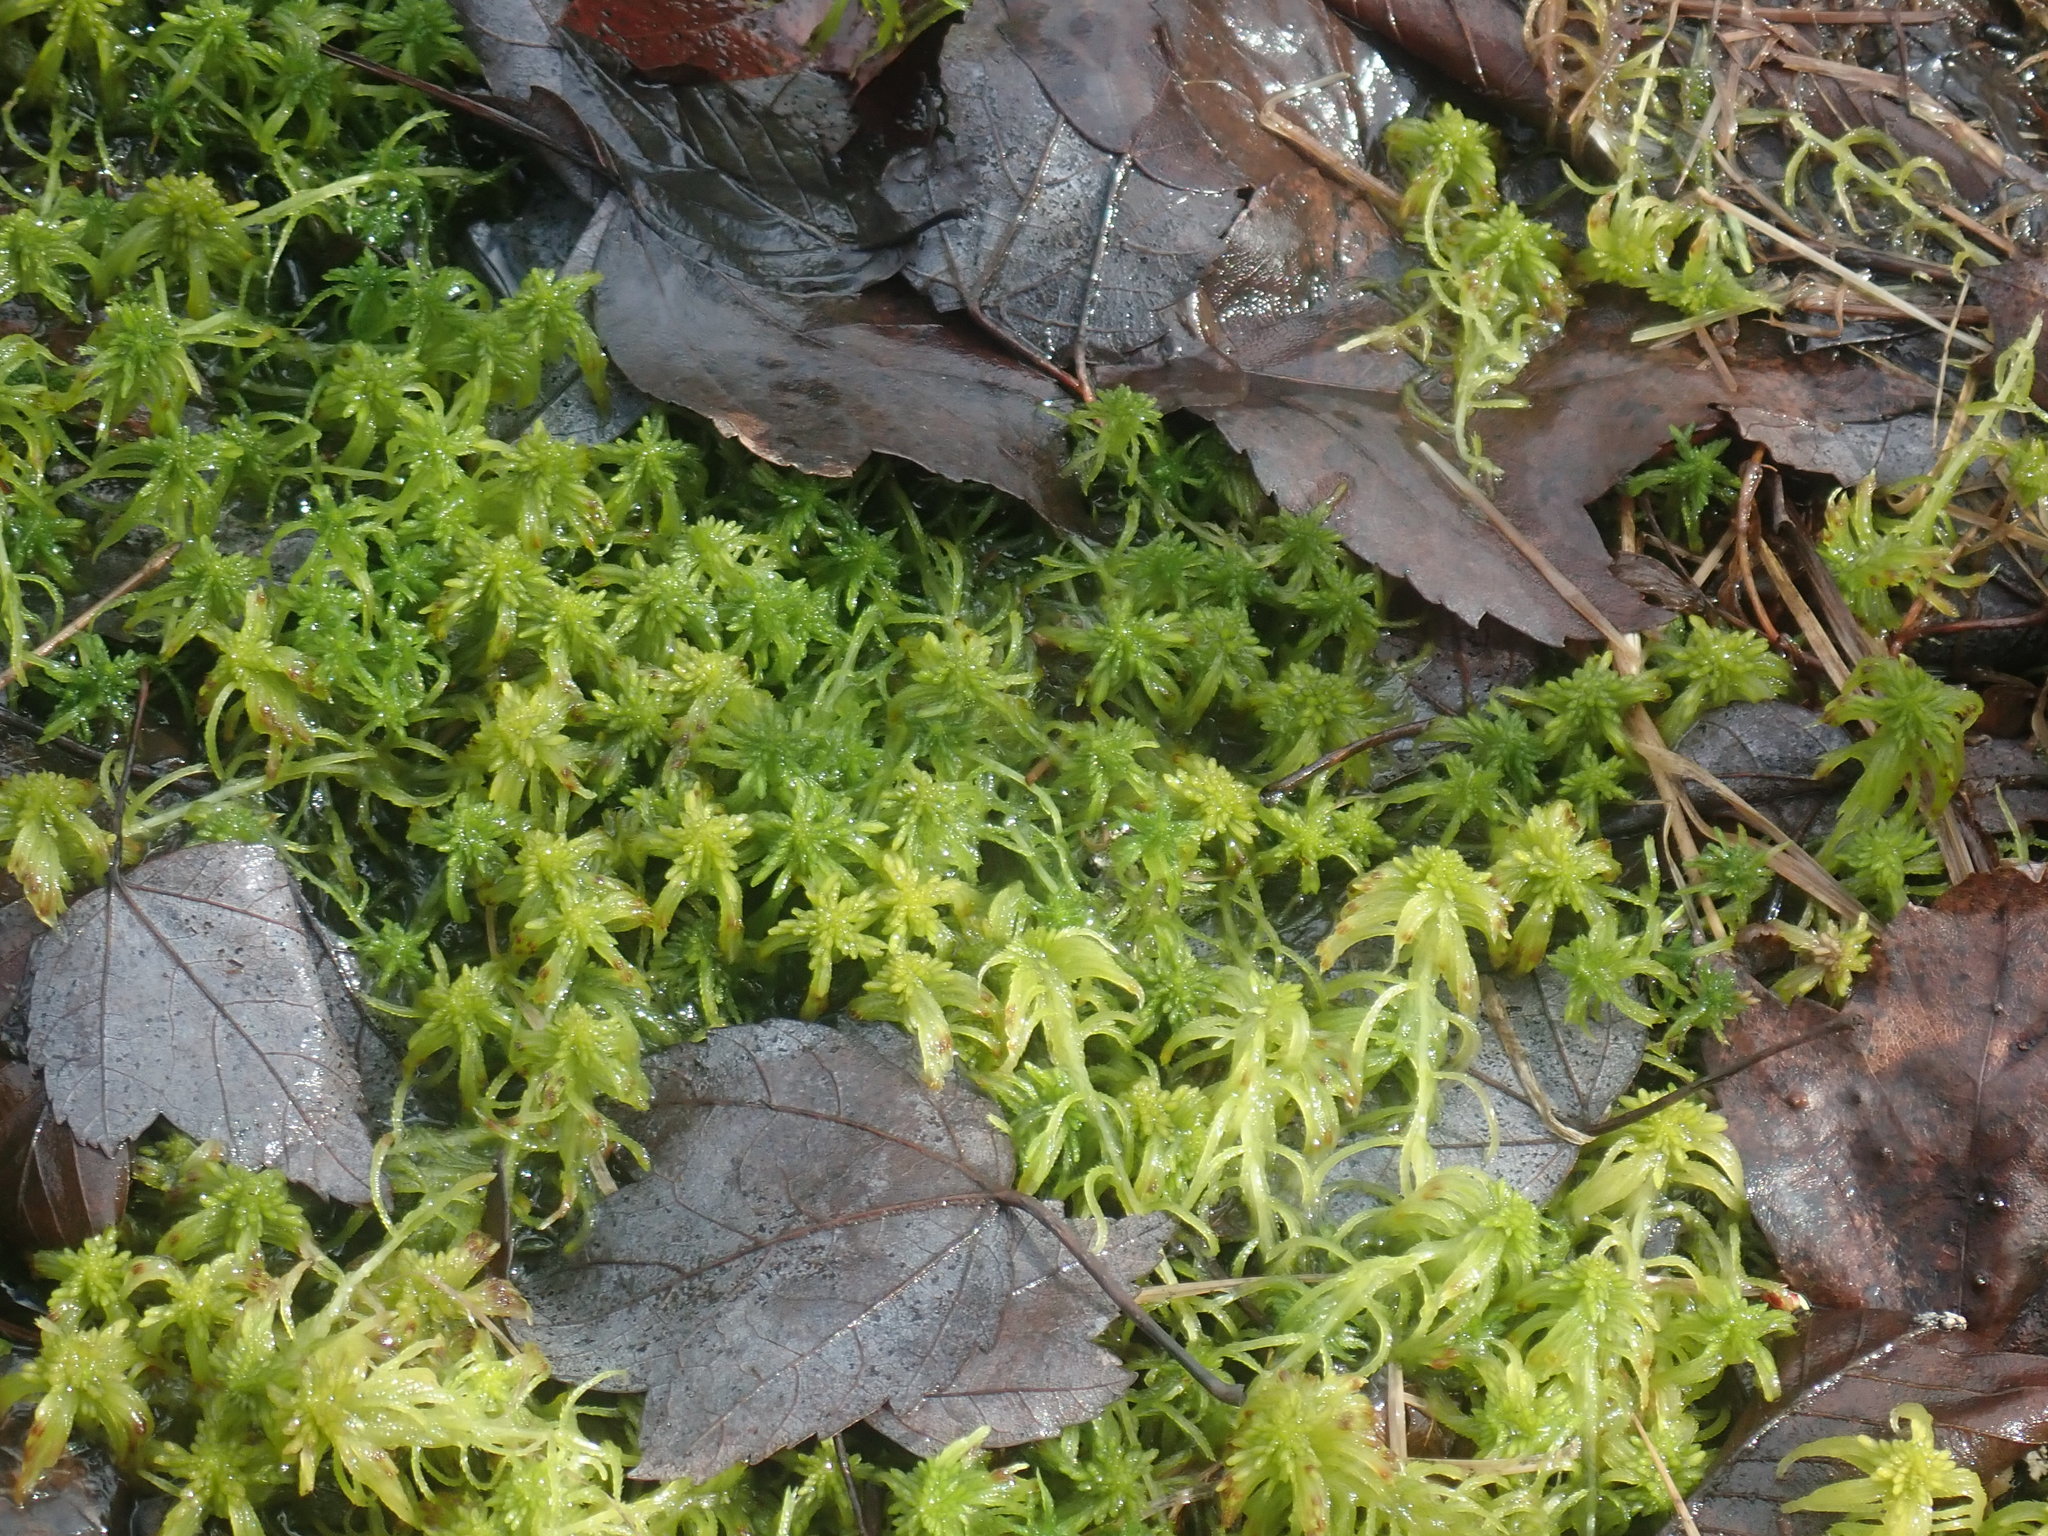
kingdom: Plantae
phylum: Bryophyta
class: Sphagnopsida
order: Sphagnales
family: Sphagnaceae
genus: Sphagnum
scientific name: Sphagnum
